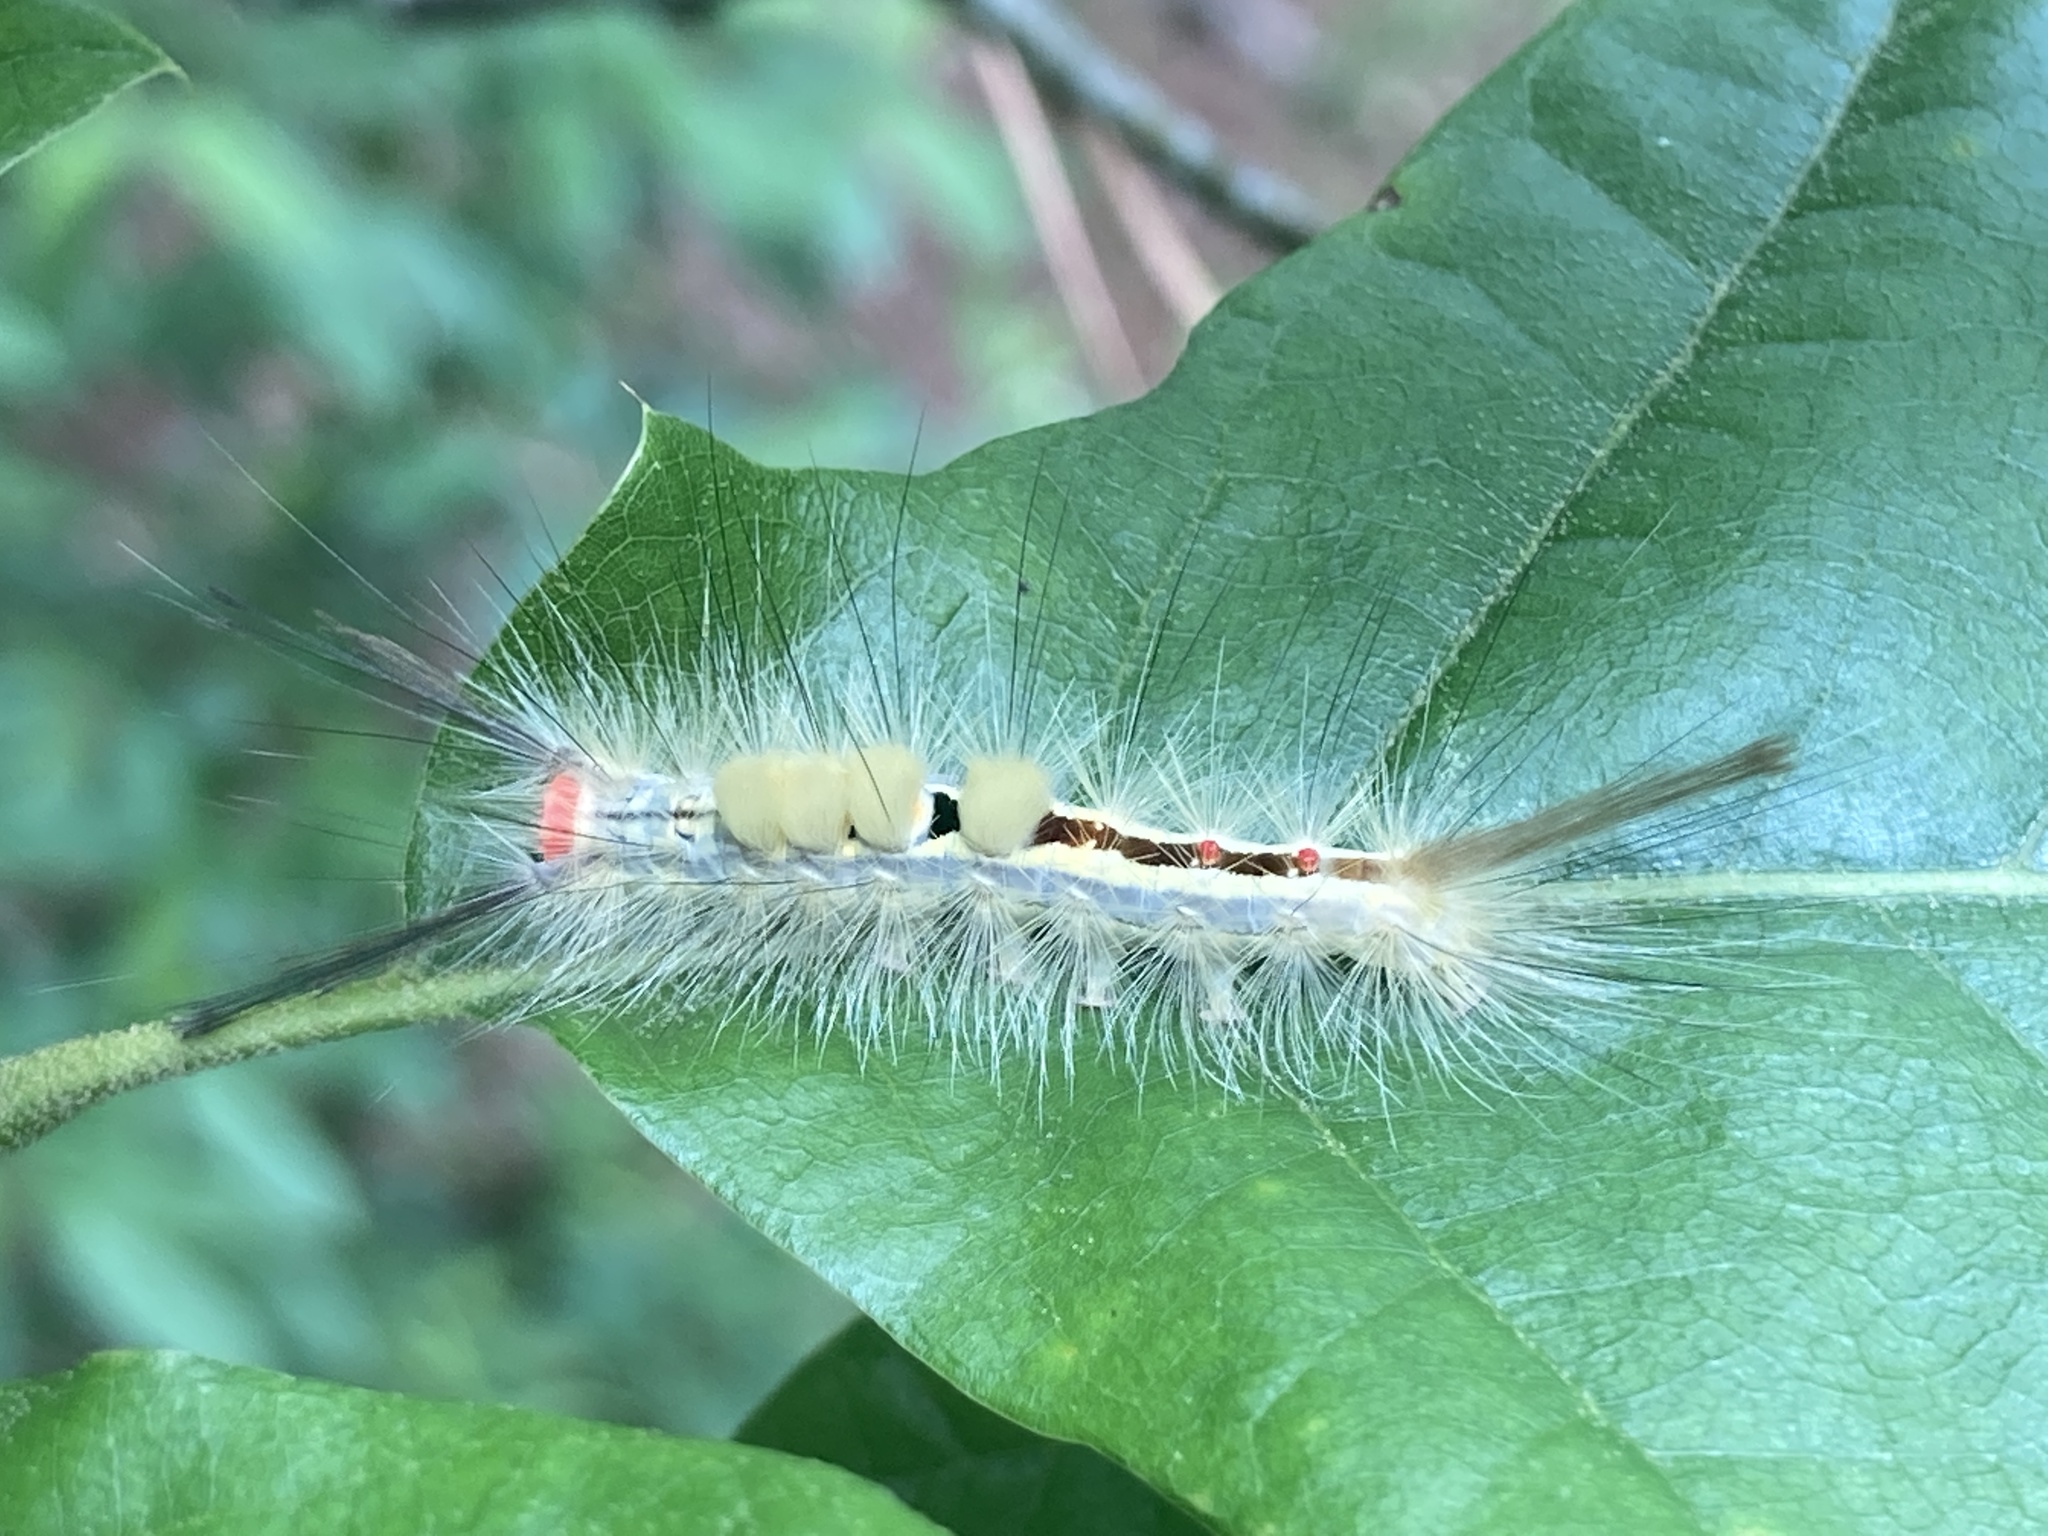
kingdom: Animalia
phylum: Arthropoda
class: Insecta
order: Lepidoptera
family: Erebidae
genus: Orgyia
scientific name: Orgyia leucostigma
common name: White-marked tussock moth
